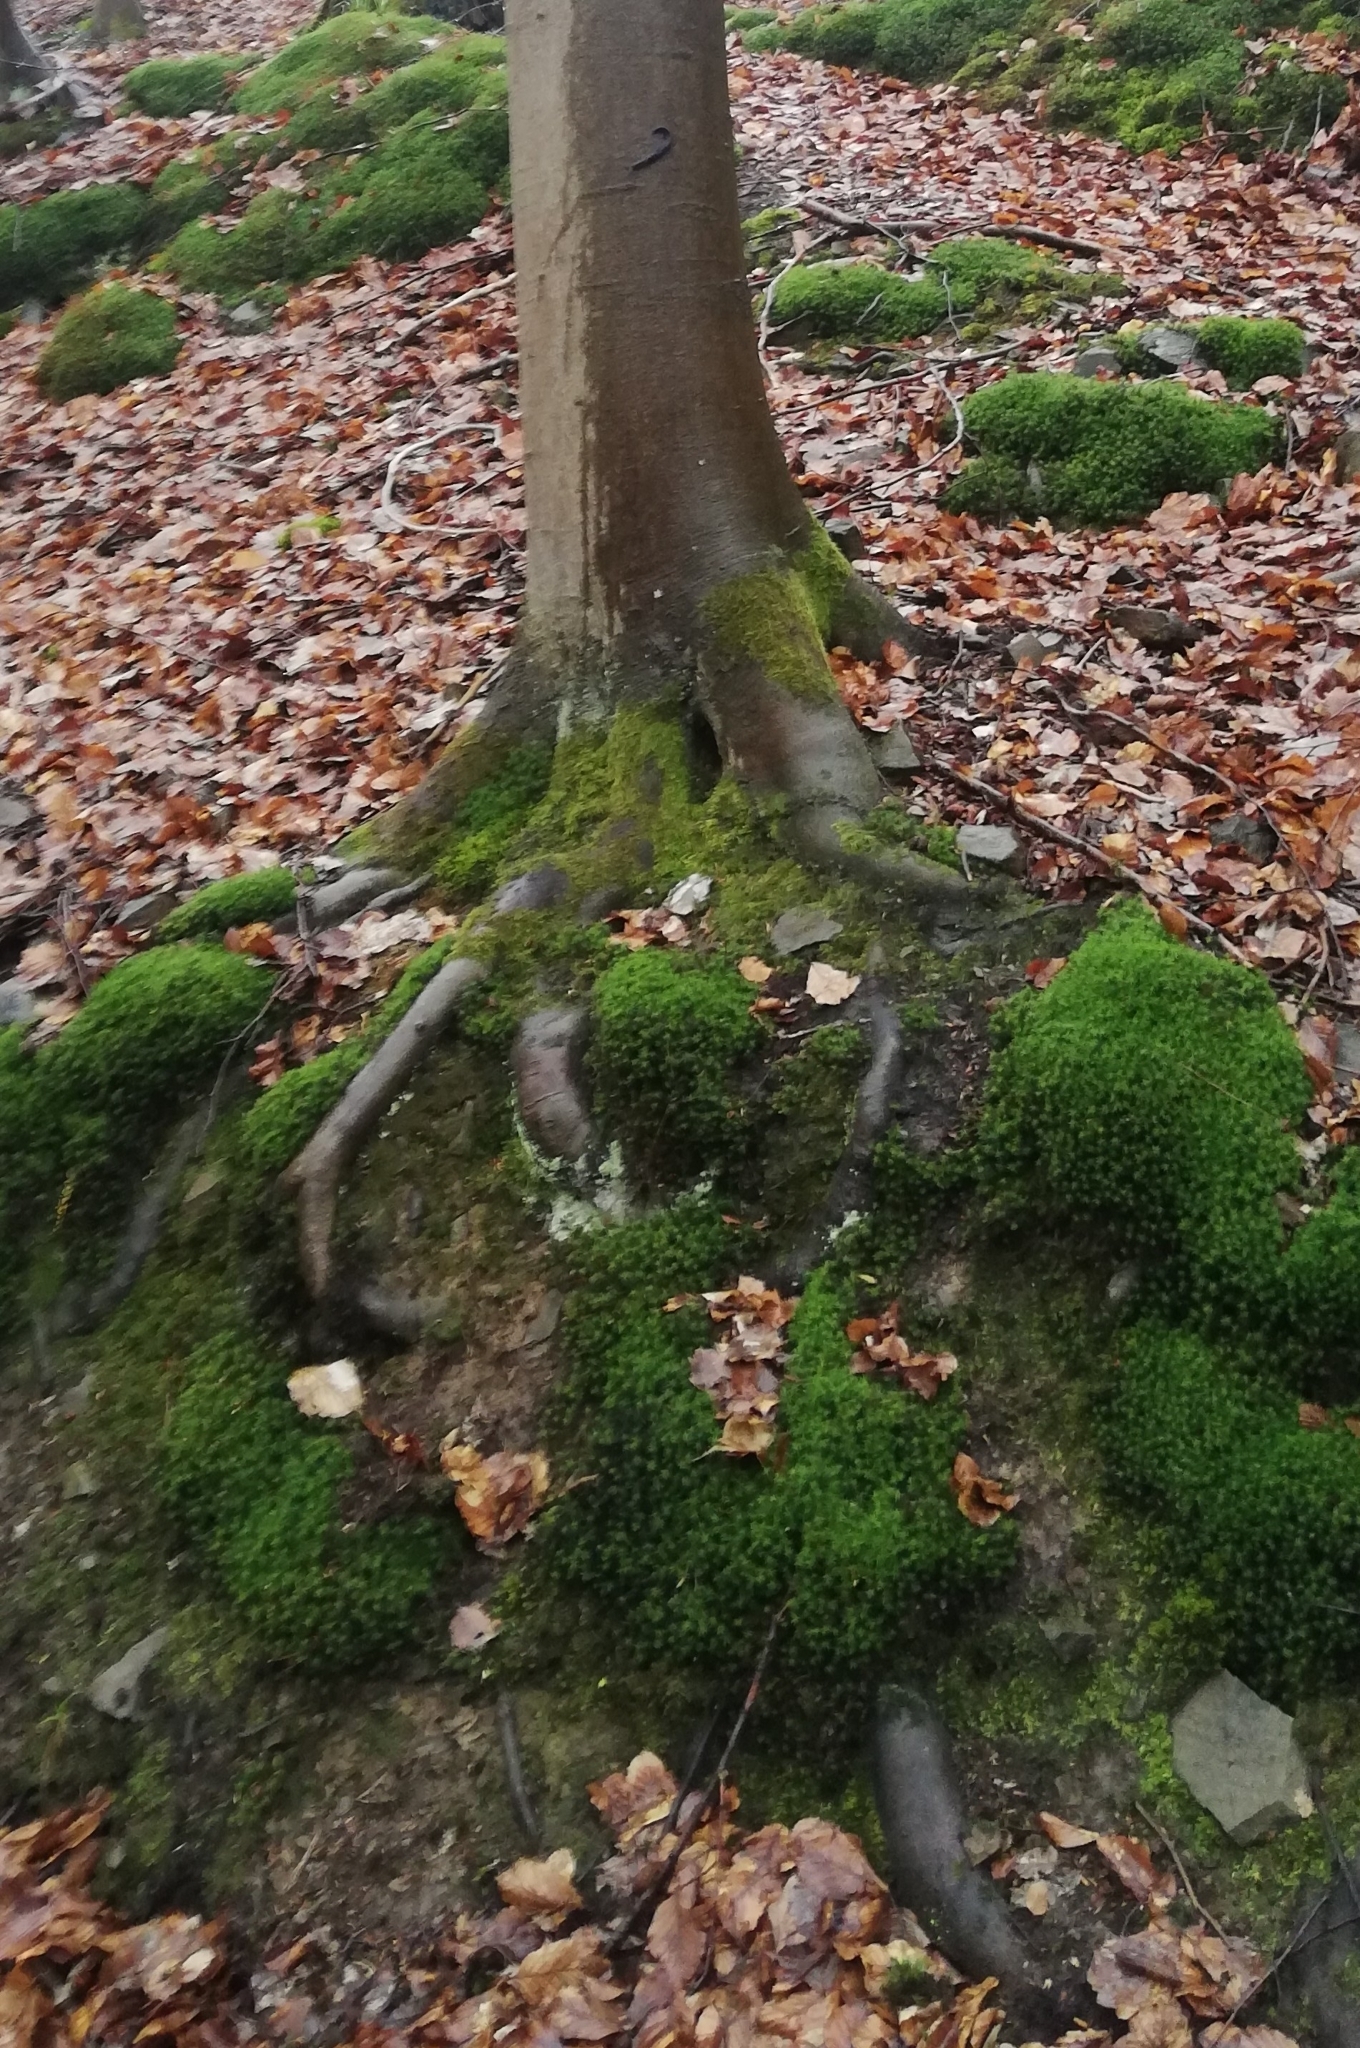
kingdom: Animalia
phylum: Mollusca
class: Gastropoda
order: Stylommatophora
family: Limacidae
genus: Limax
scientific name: Limax cinereoniger
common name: Ash-black slug
